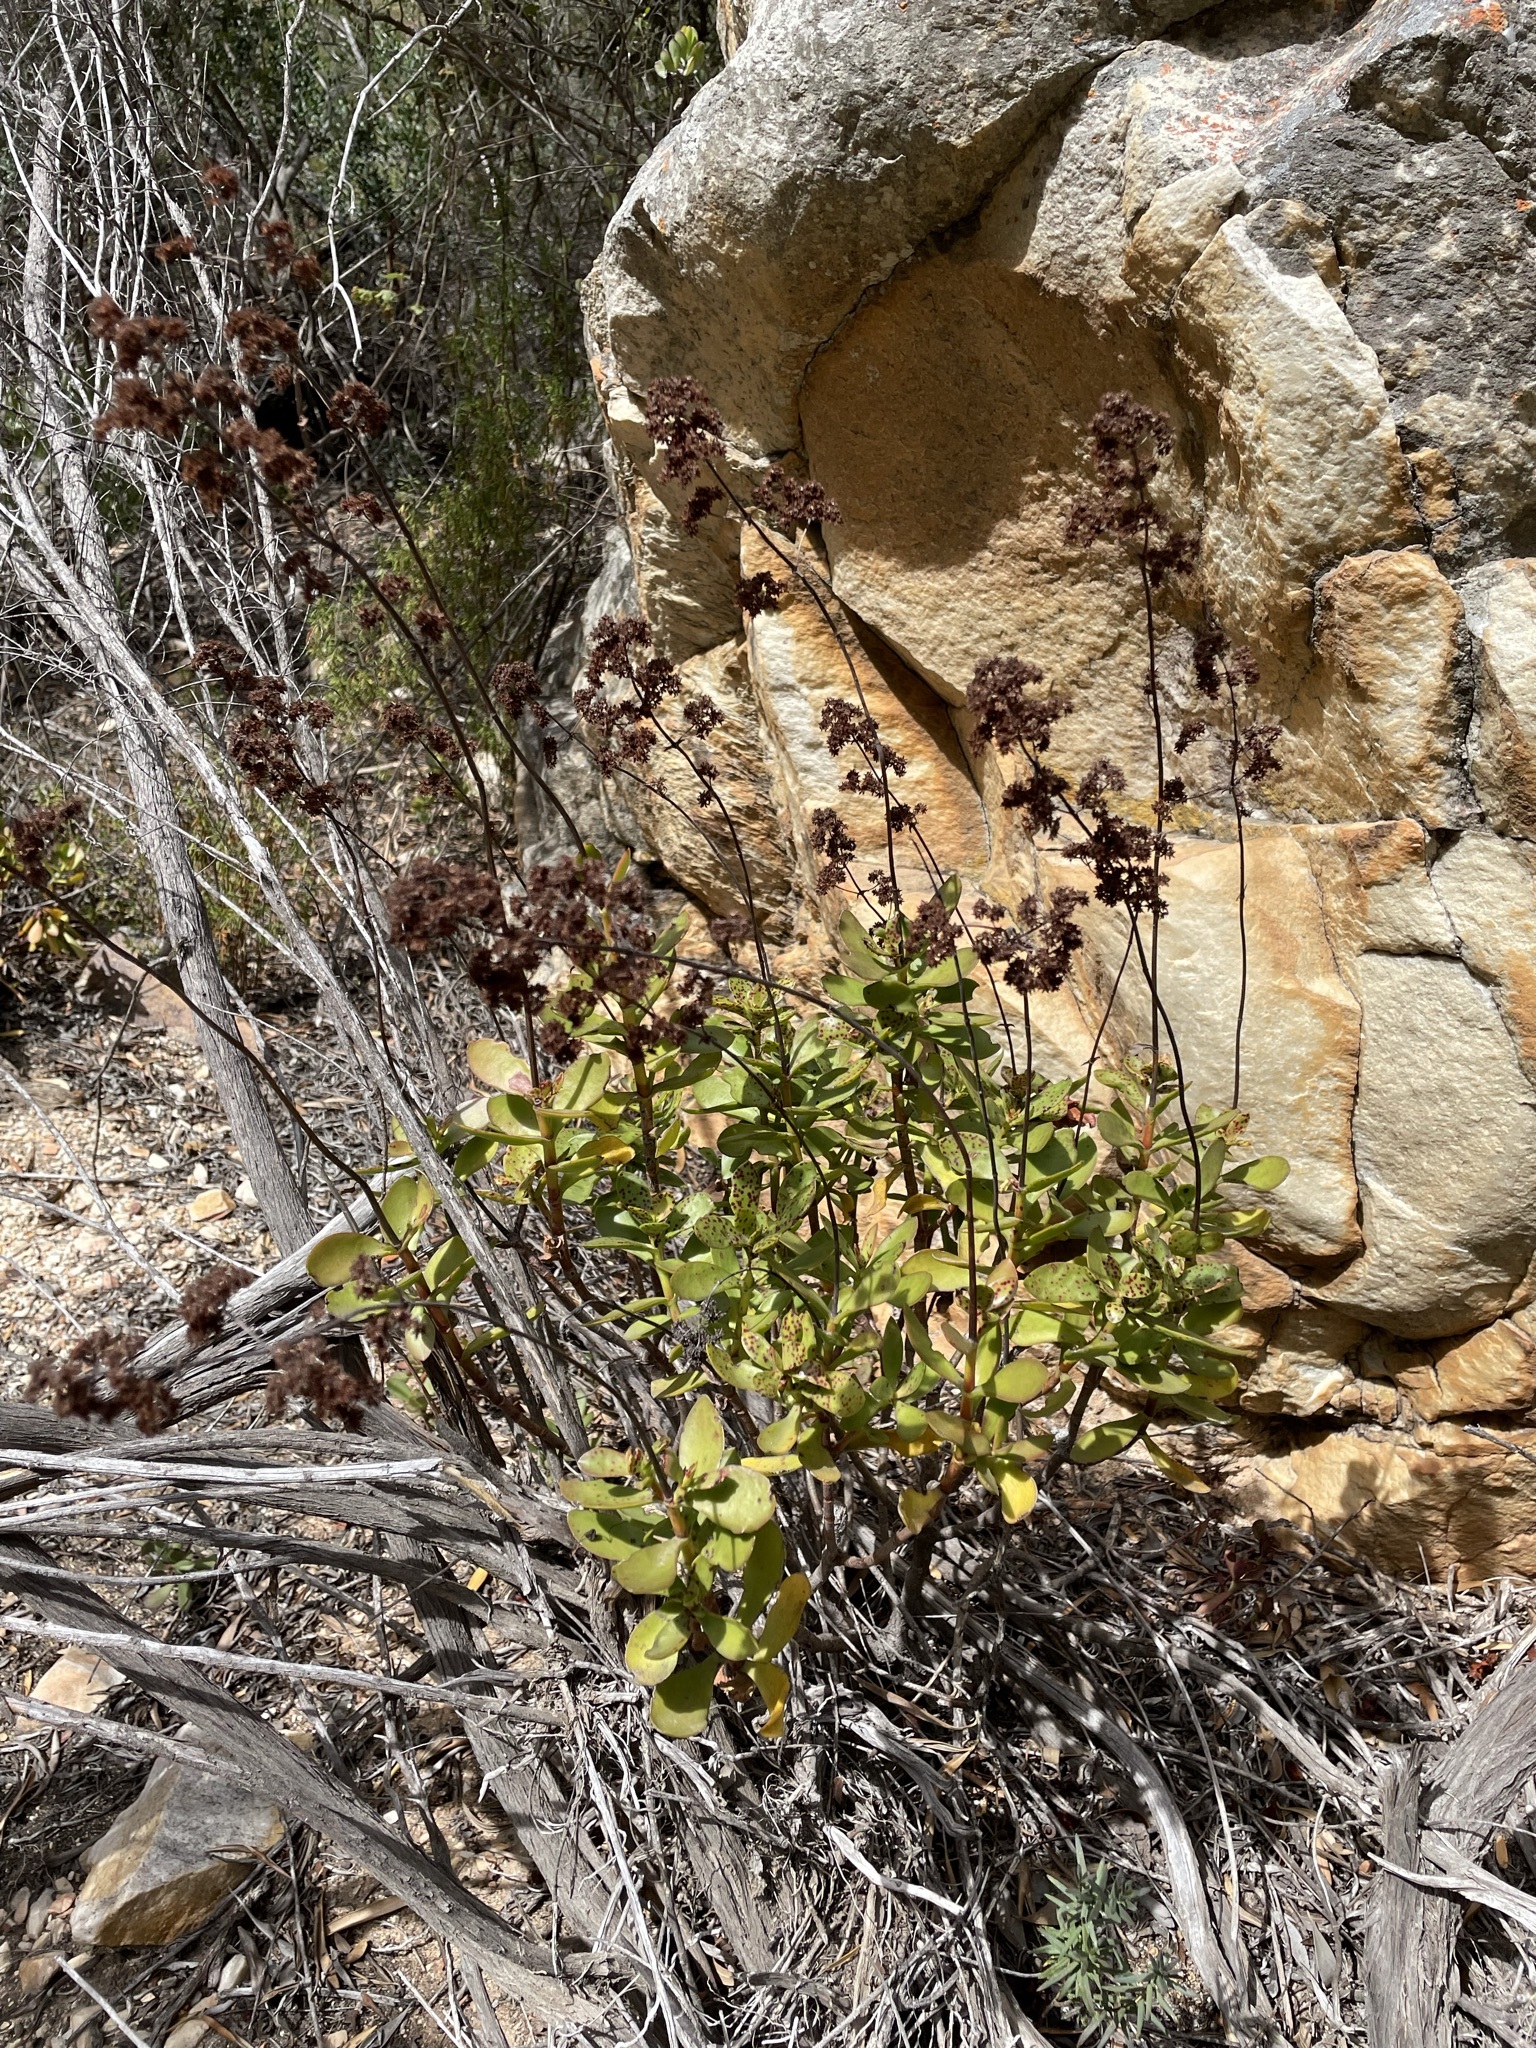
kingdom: Plantae
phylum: Tracheophyta
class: Magnoliopsida
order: Saxifragales
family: Crassulaceae
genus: Crassula
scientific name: Crassula cultrata
